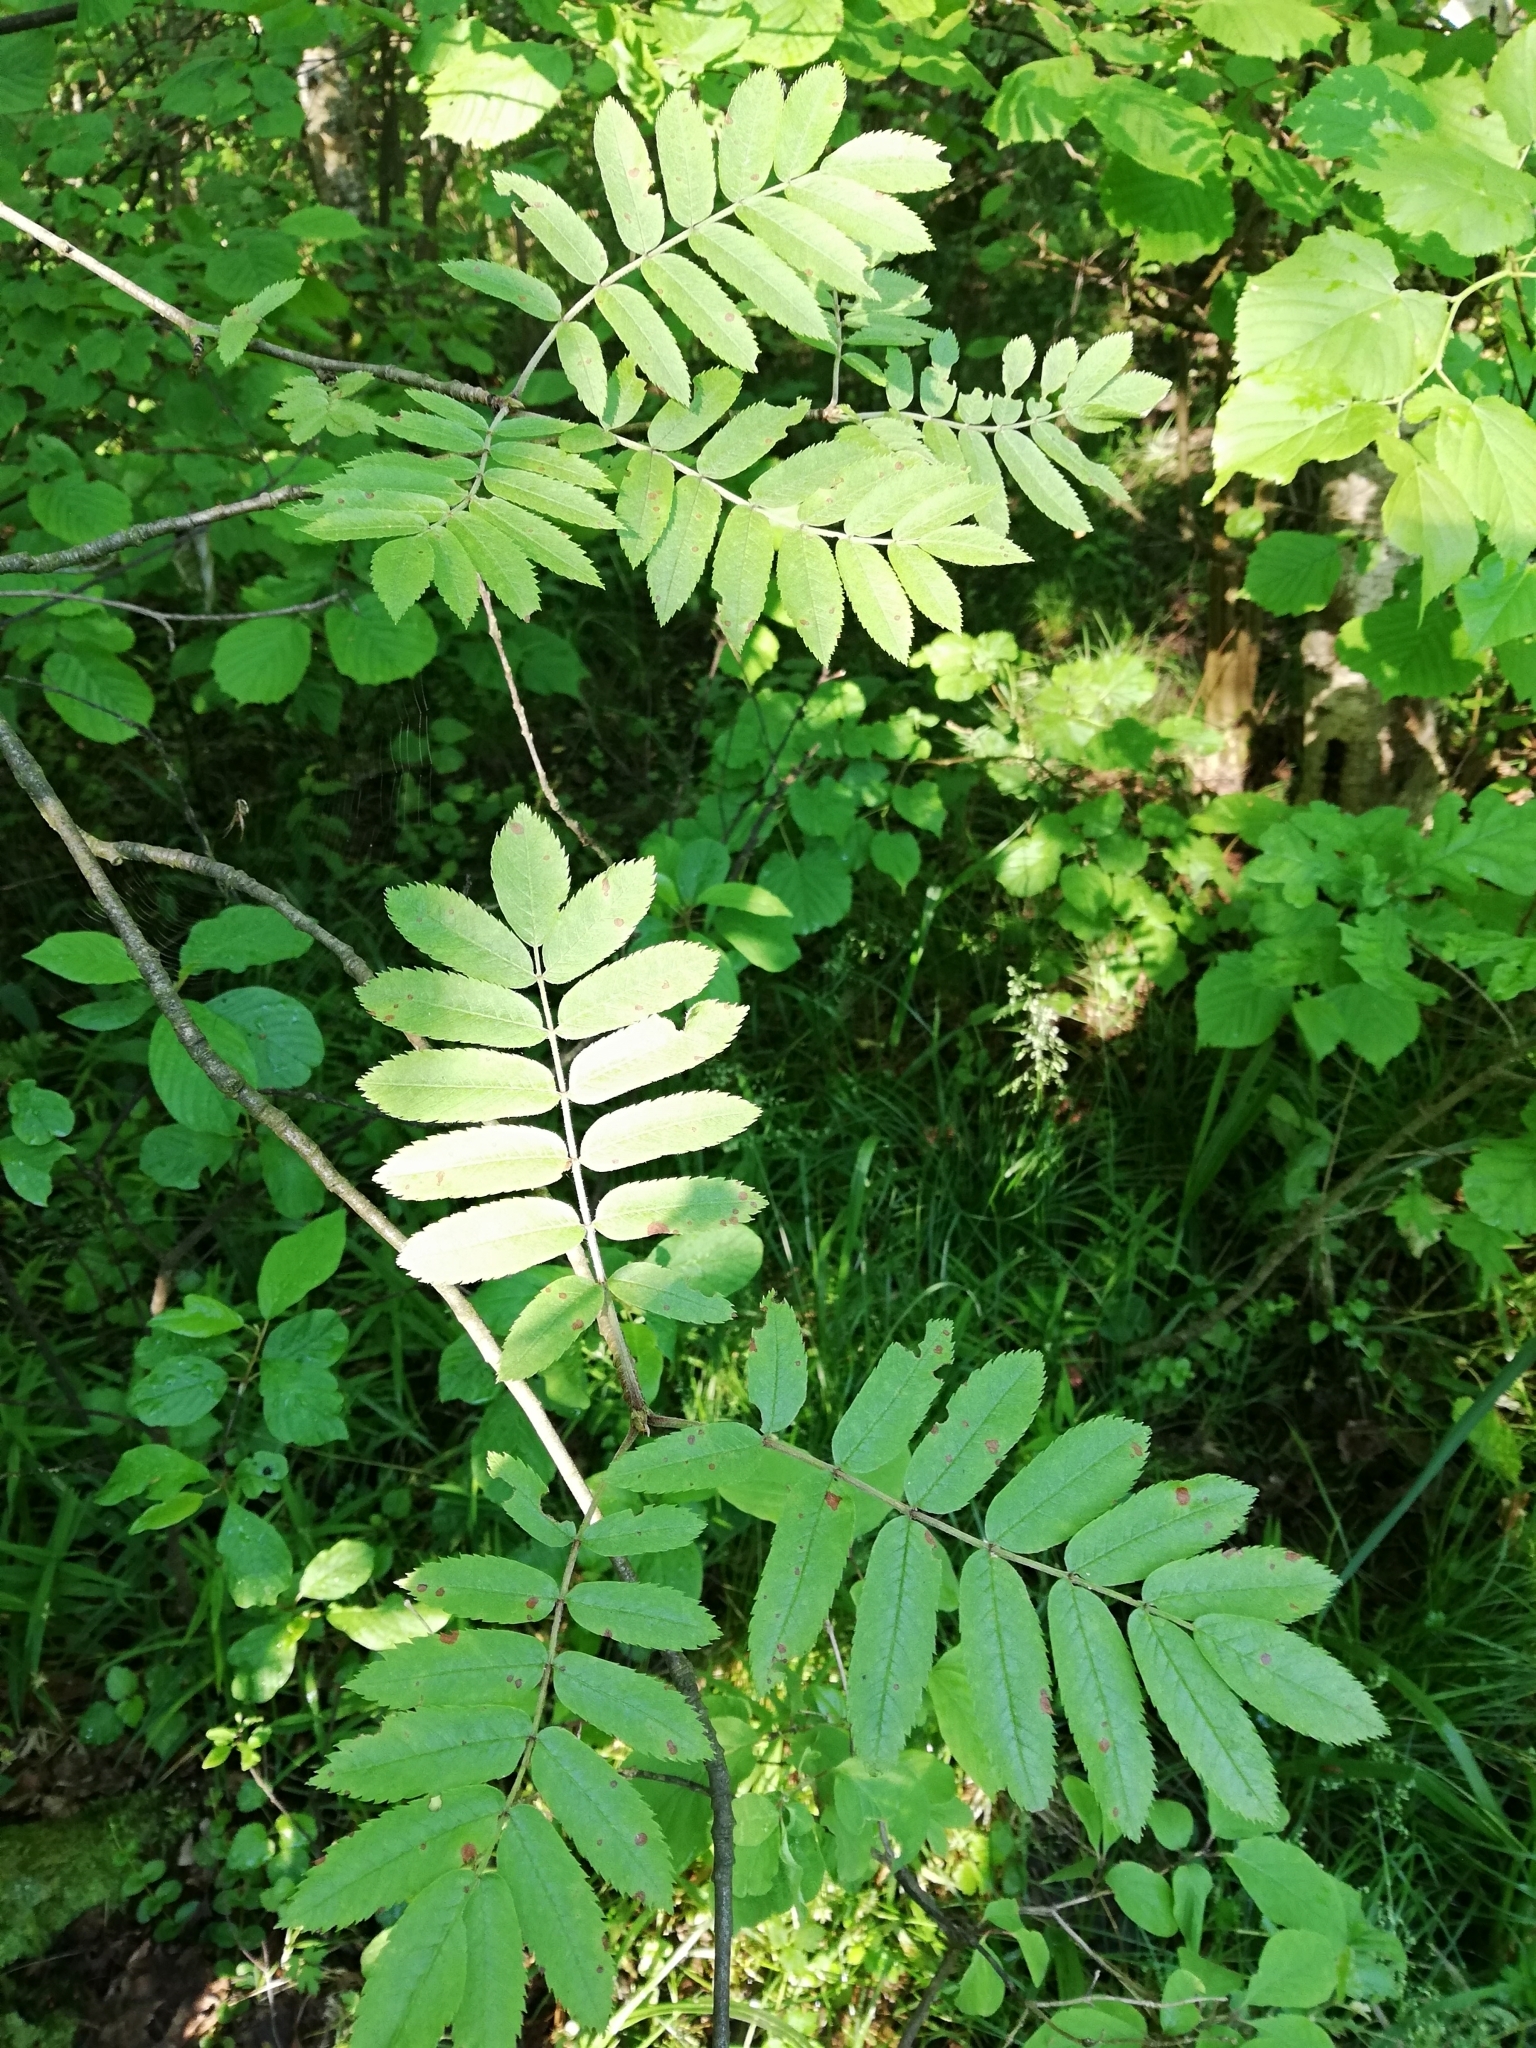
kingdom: Plantae
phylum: Tracheophyta
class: Magnoliopsida
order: Rosales
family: Rosaceae
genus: Sorbus
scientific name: Sorbus aucuparia
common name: Rowan
